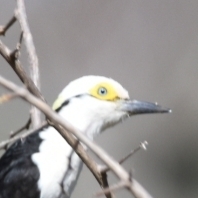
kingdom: Animalia
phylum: Chordata
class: Aves
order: Piciformes
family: Picidae
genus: Melanerpes
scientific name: Melanerpes candidus
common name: White woodpecker
